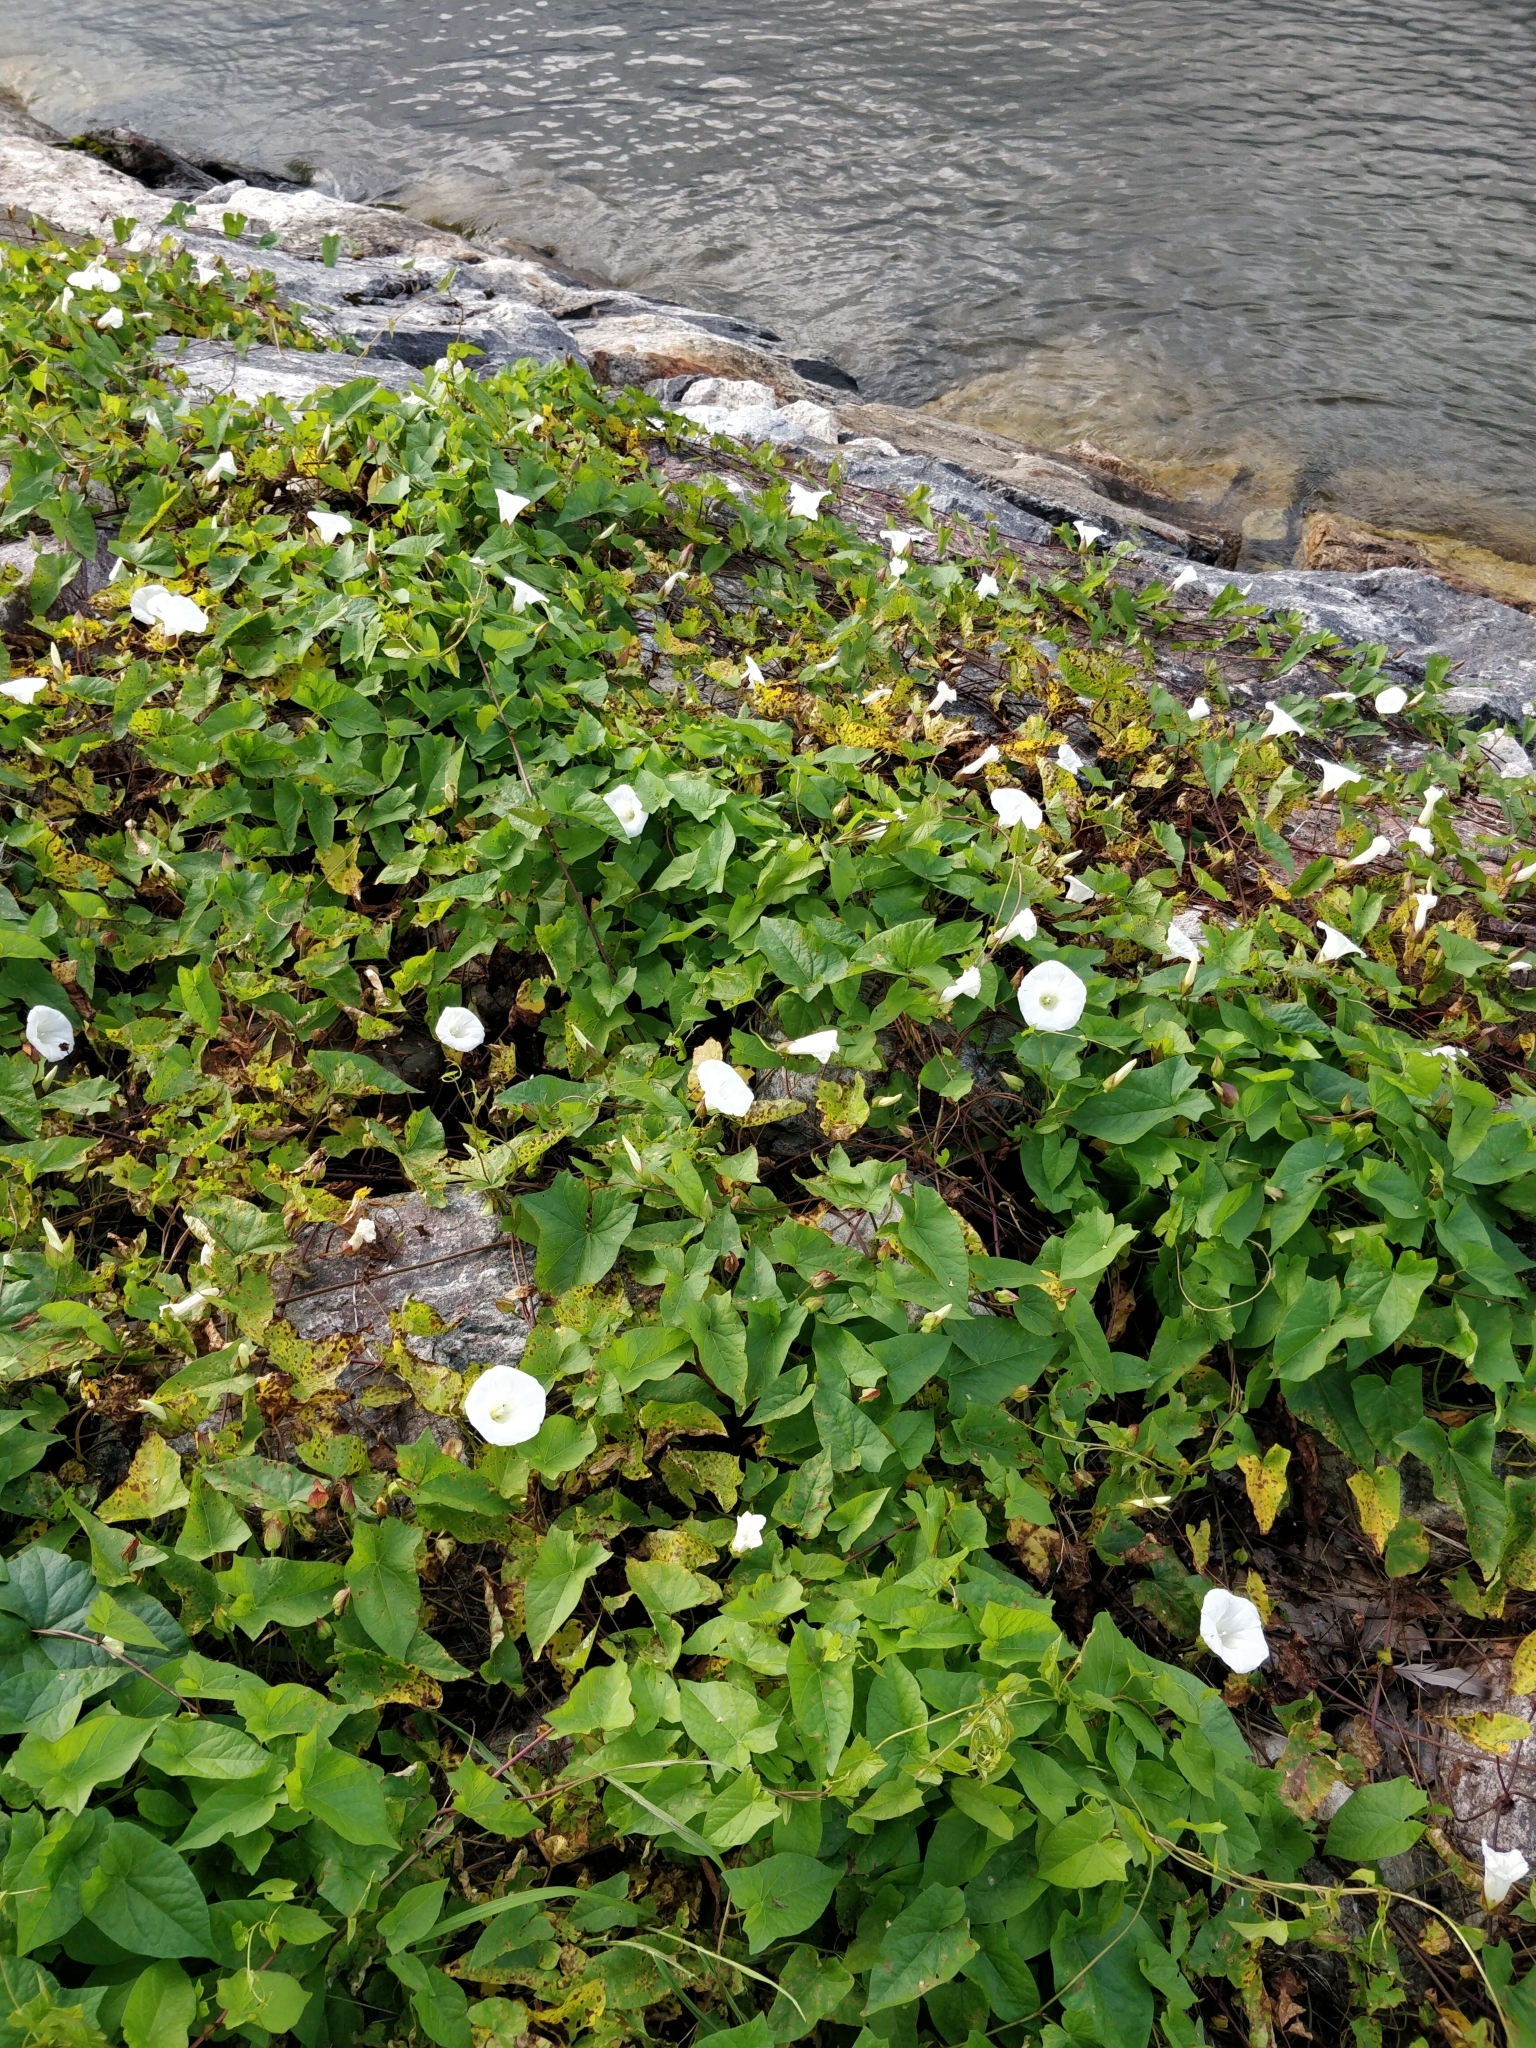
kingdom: Plantae
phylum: Tracheophyta
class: Magnoliopsida
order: Solanales
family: Convolvulaceae
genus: Calystegia
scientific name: Calystegia sepium
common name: Hedge bindweed
